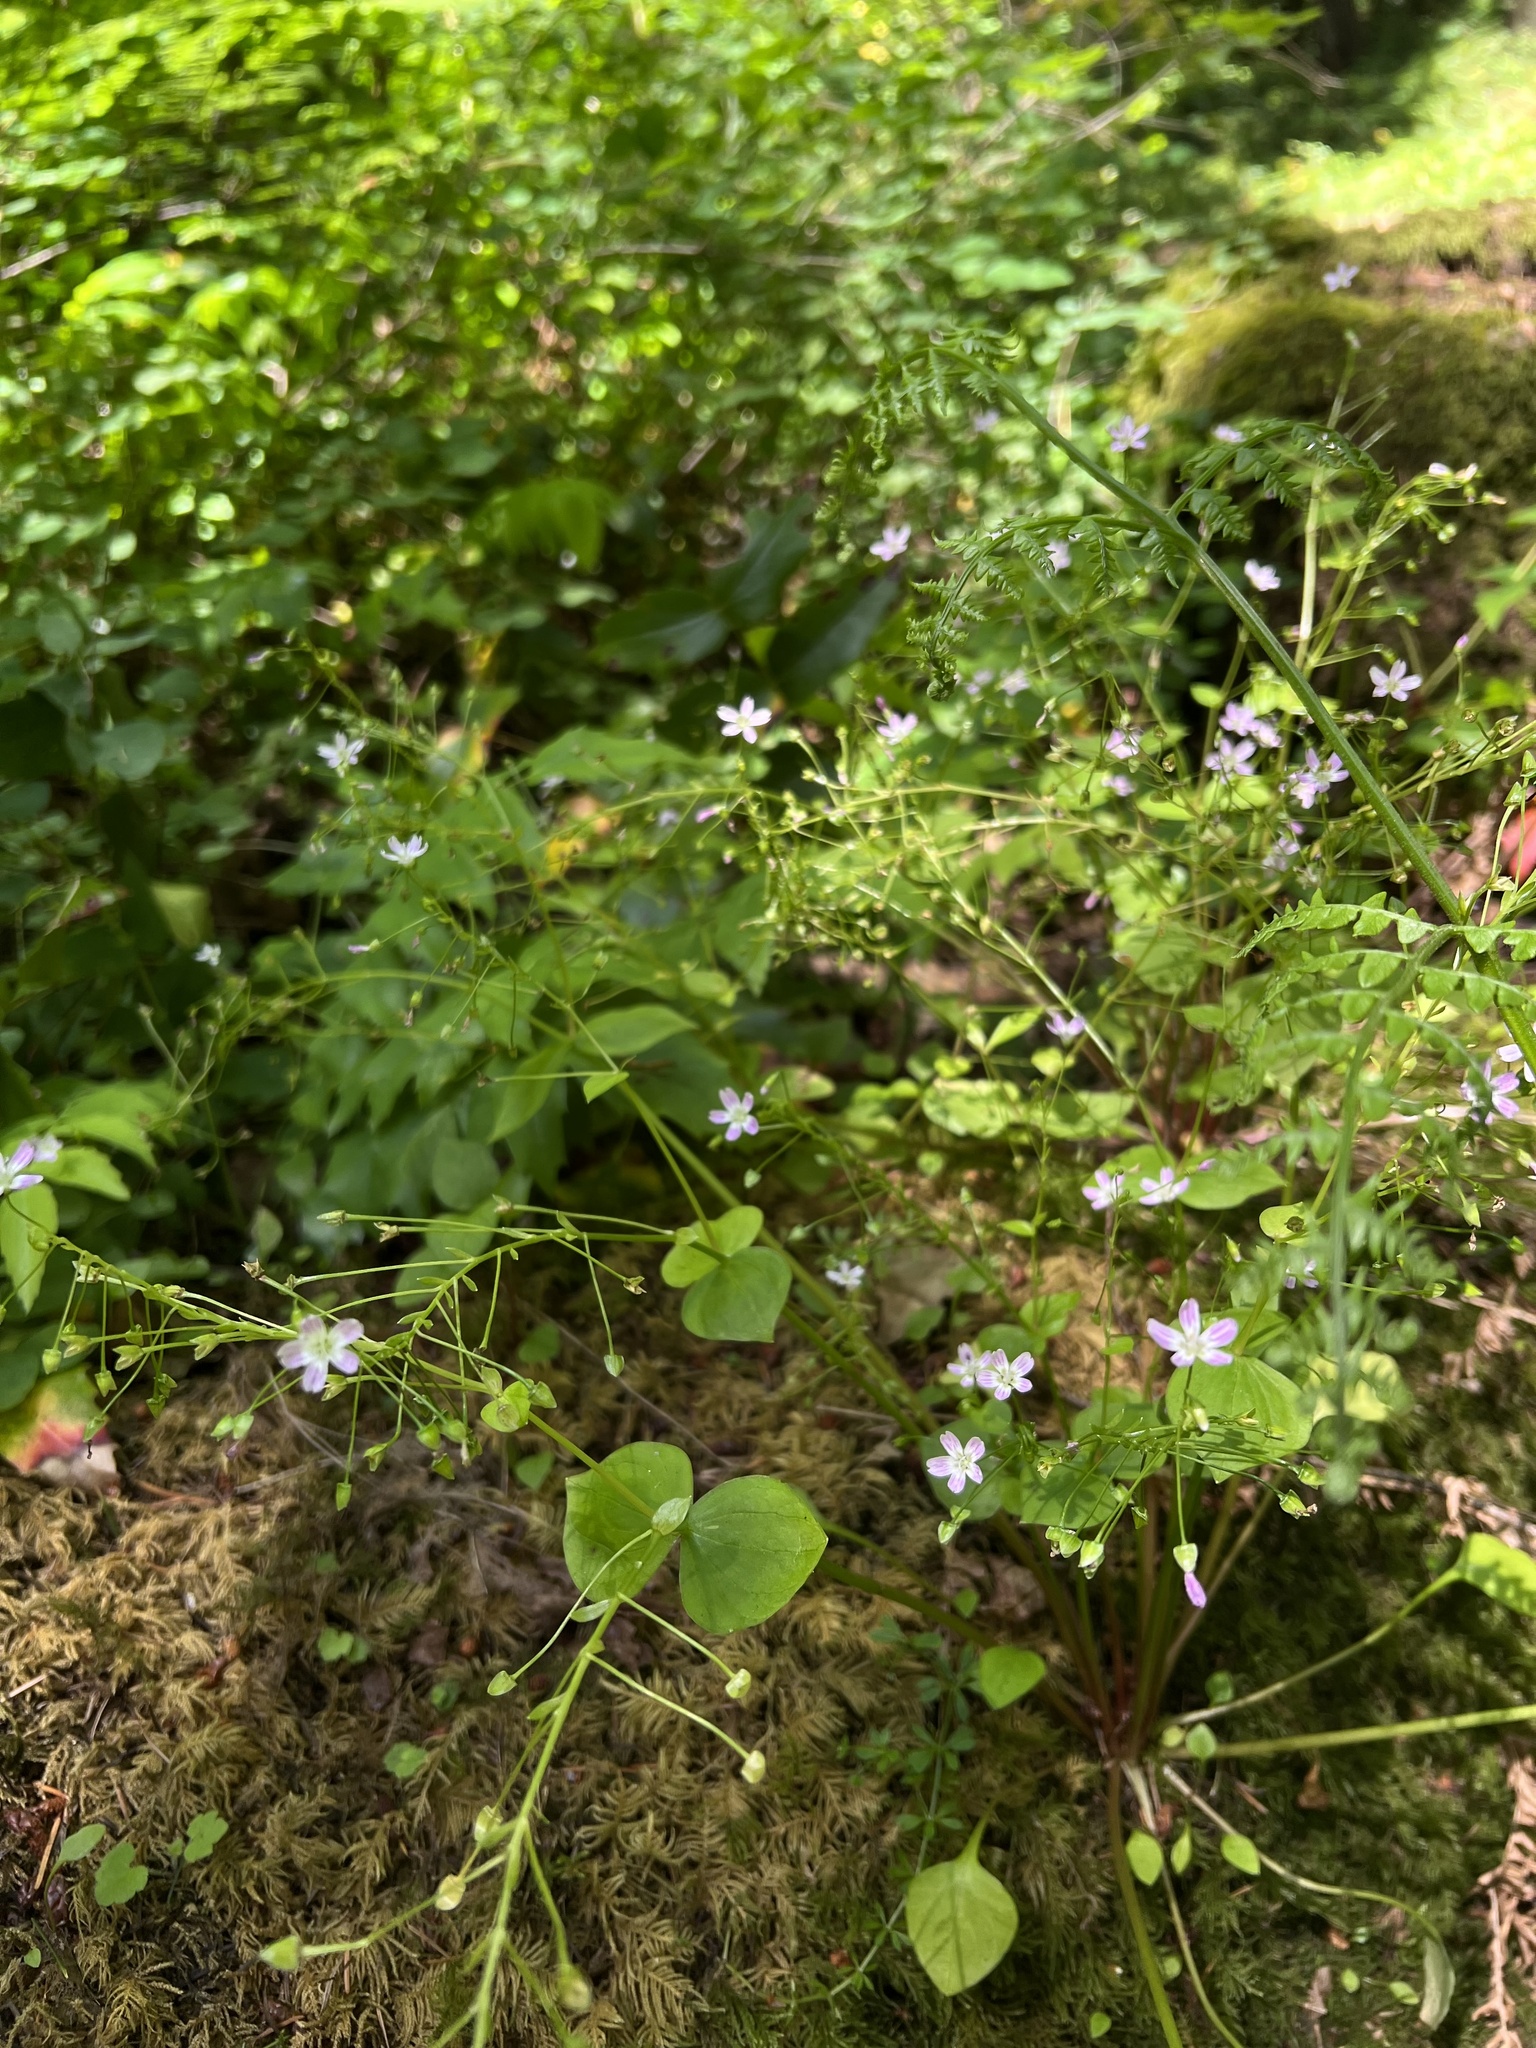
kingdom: Plantae
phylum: Tracheophyta
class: Magnoliopsida
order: Caryophyllales
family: Montiaceae
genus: Claytonia
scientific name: Claytonia sibirica
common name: Pink purslane
